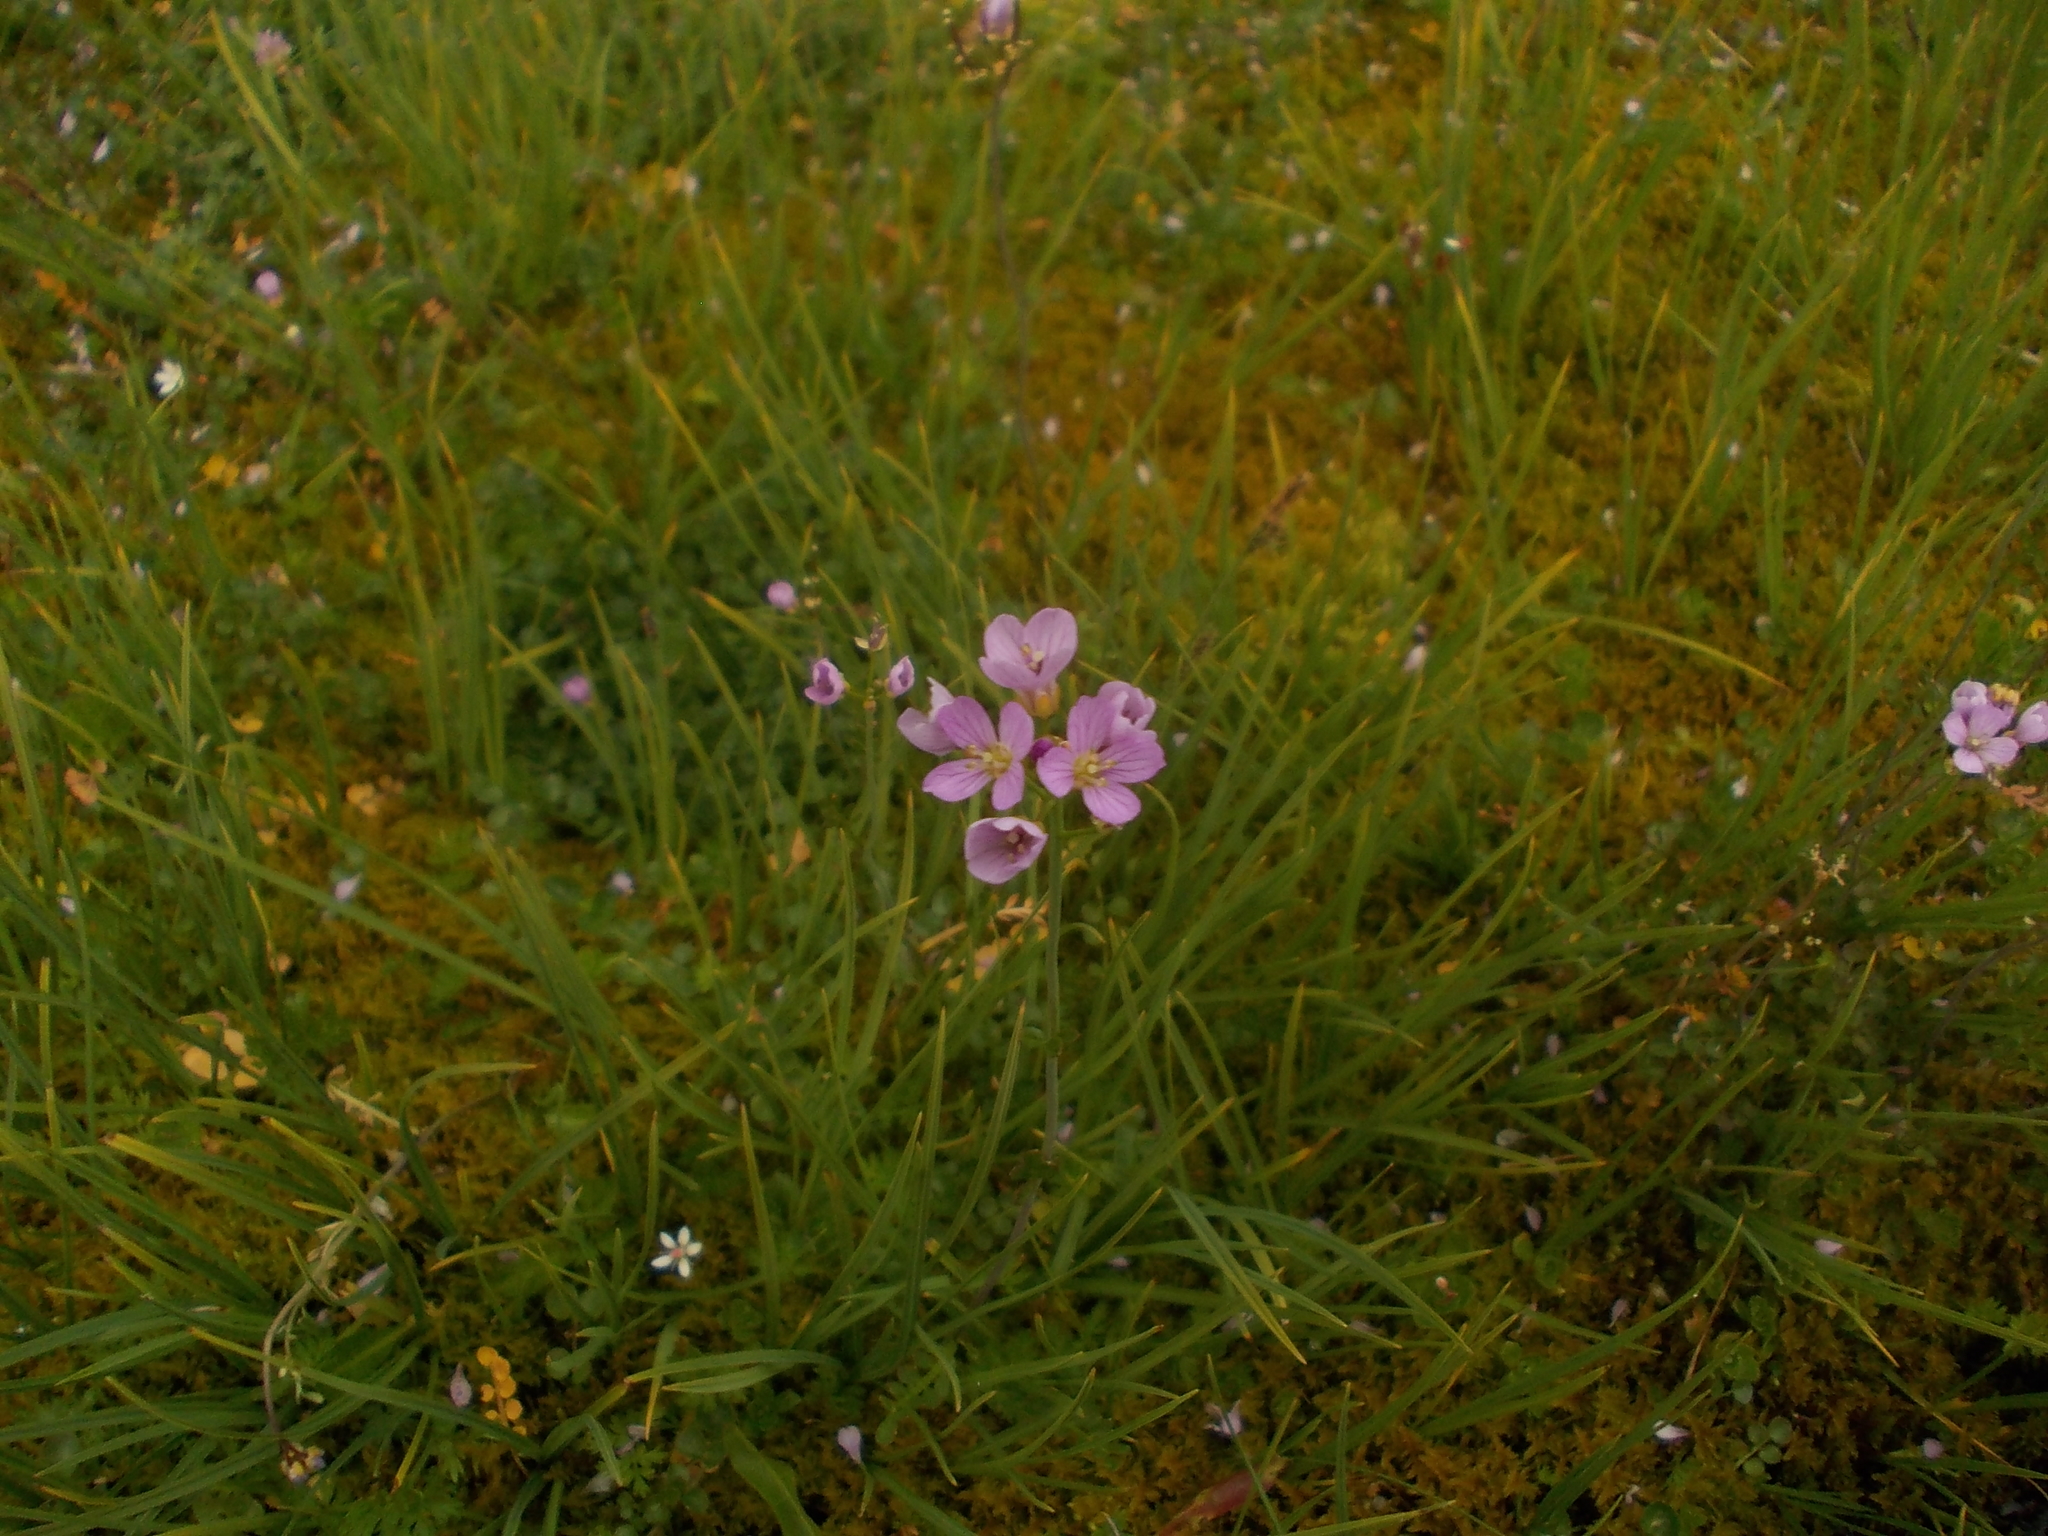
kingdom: Plantae
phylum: Tracheophyta
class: Magnoliopsida
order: Brassicales
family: Brassicaceae
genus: Cardamine
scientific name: Cardamine pratensis
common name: Cuckoo flower
